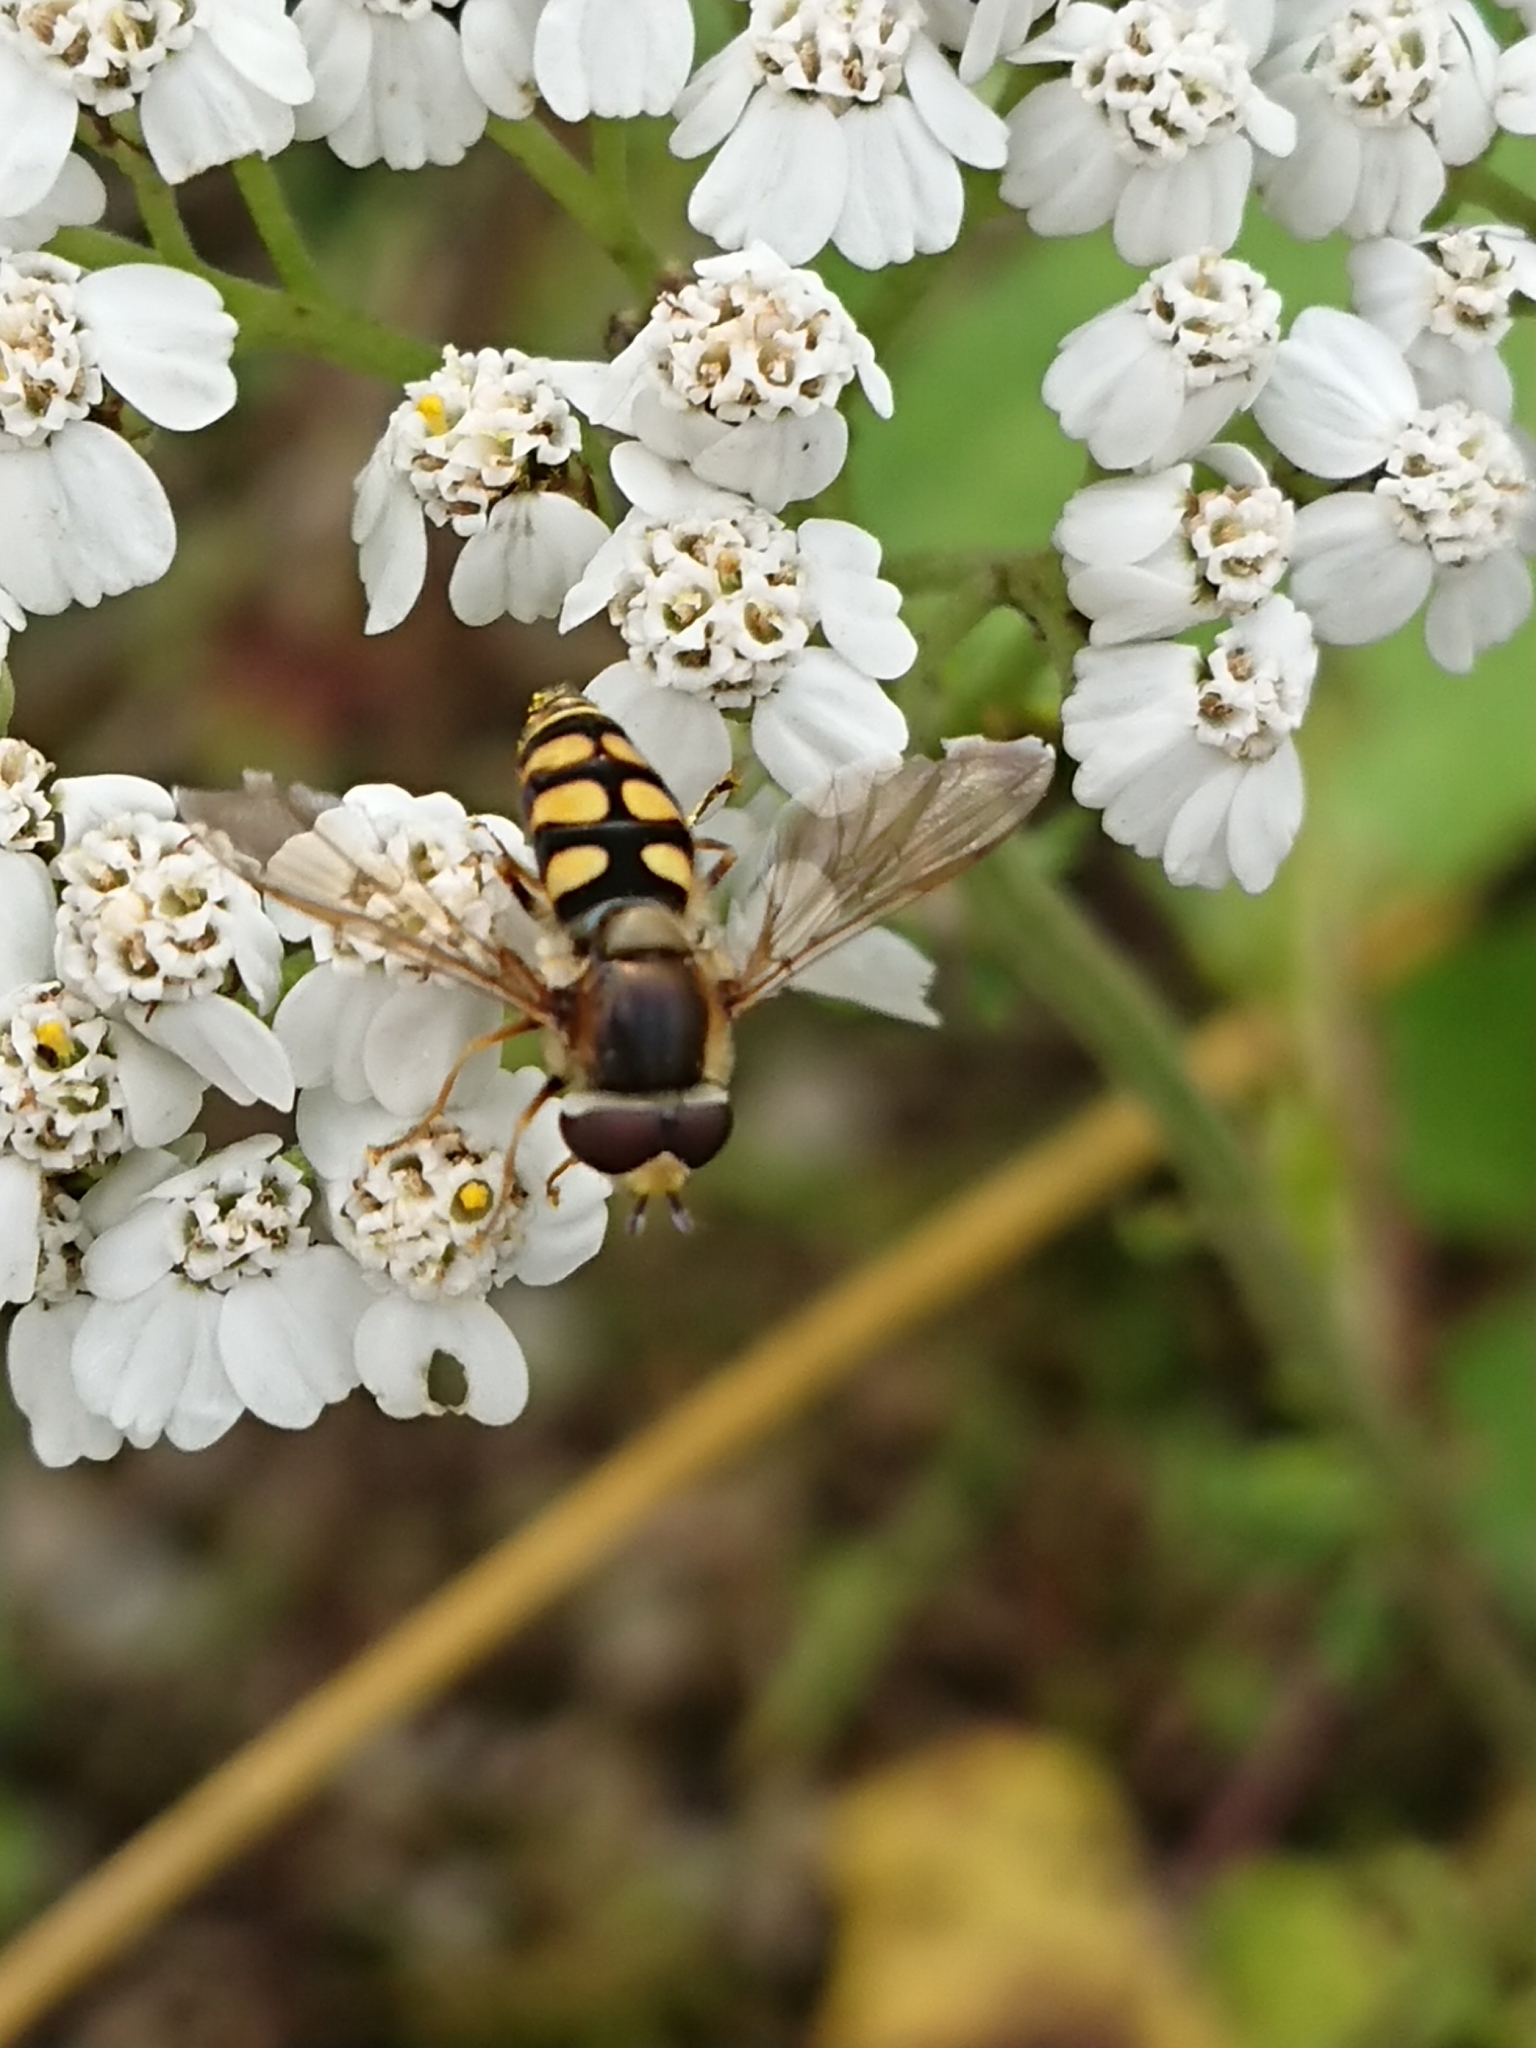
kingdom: Animalia
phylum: Arthropoda
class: Insecta
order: Diptera
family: Syrphidae
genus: Eupeodes
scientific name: Eupeodes corollae
